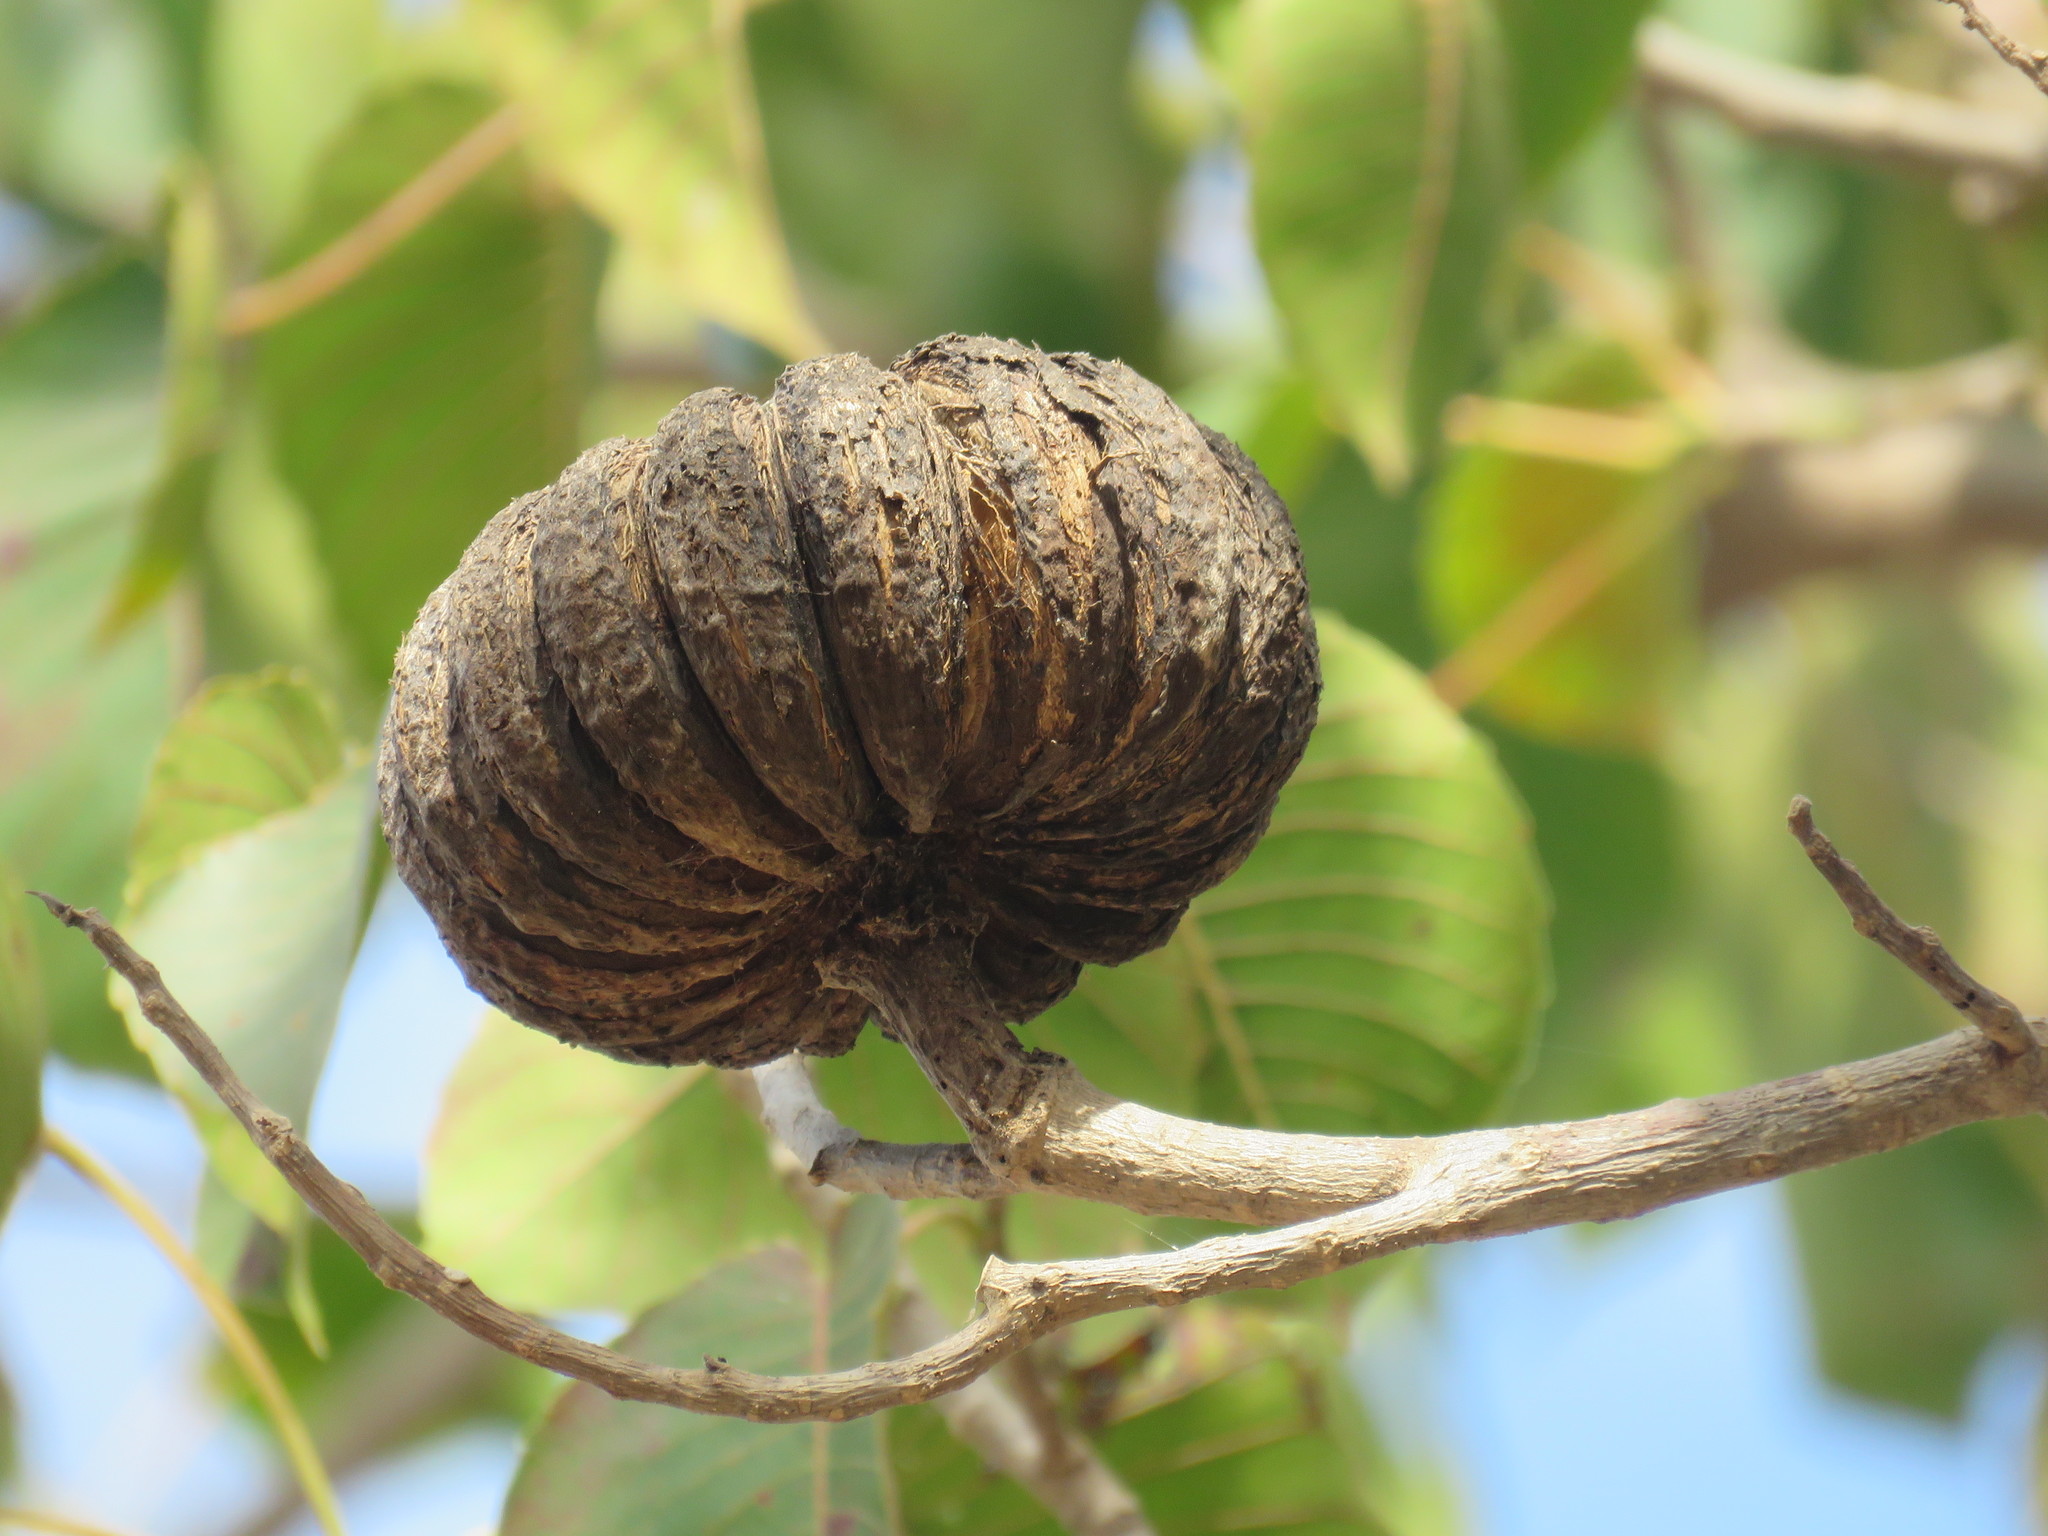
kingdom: Plantae
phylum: Tracheophyta
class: Magnoliopsida
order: Malpighiales
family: Euphorbiaceae
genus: Hura
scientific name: Hura polyandra
